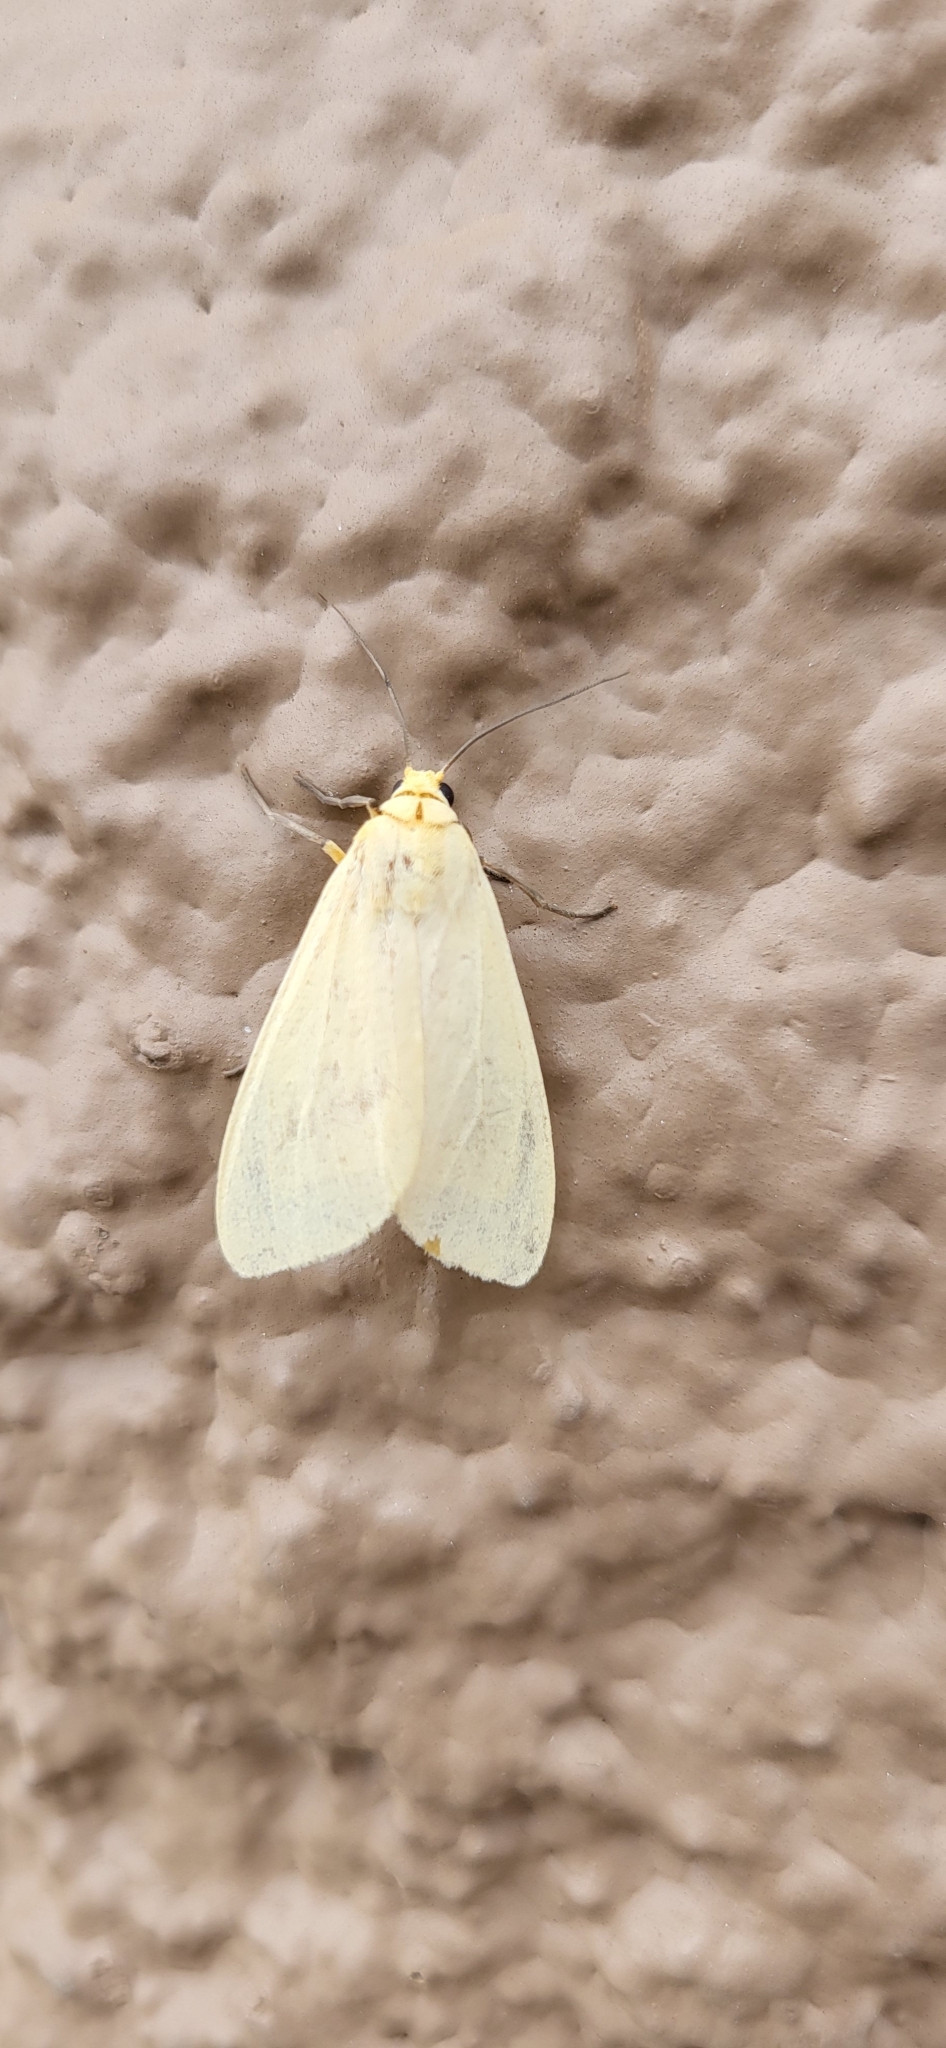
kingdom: Animalia
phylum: Arthropoda
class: Insecta
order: Lepidoptera
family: Erebidae
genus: Pareuchaetes
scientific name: Pareuchaetes insulata
